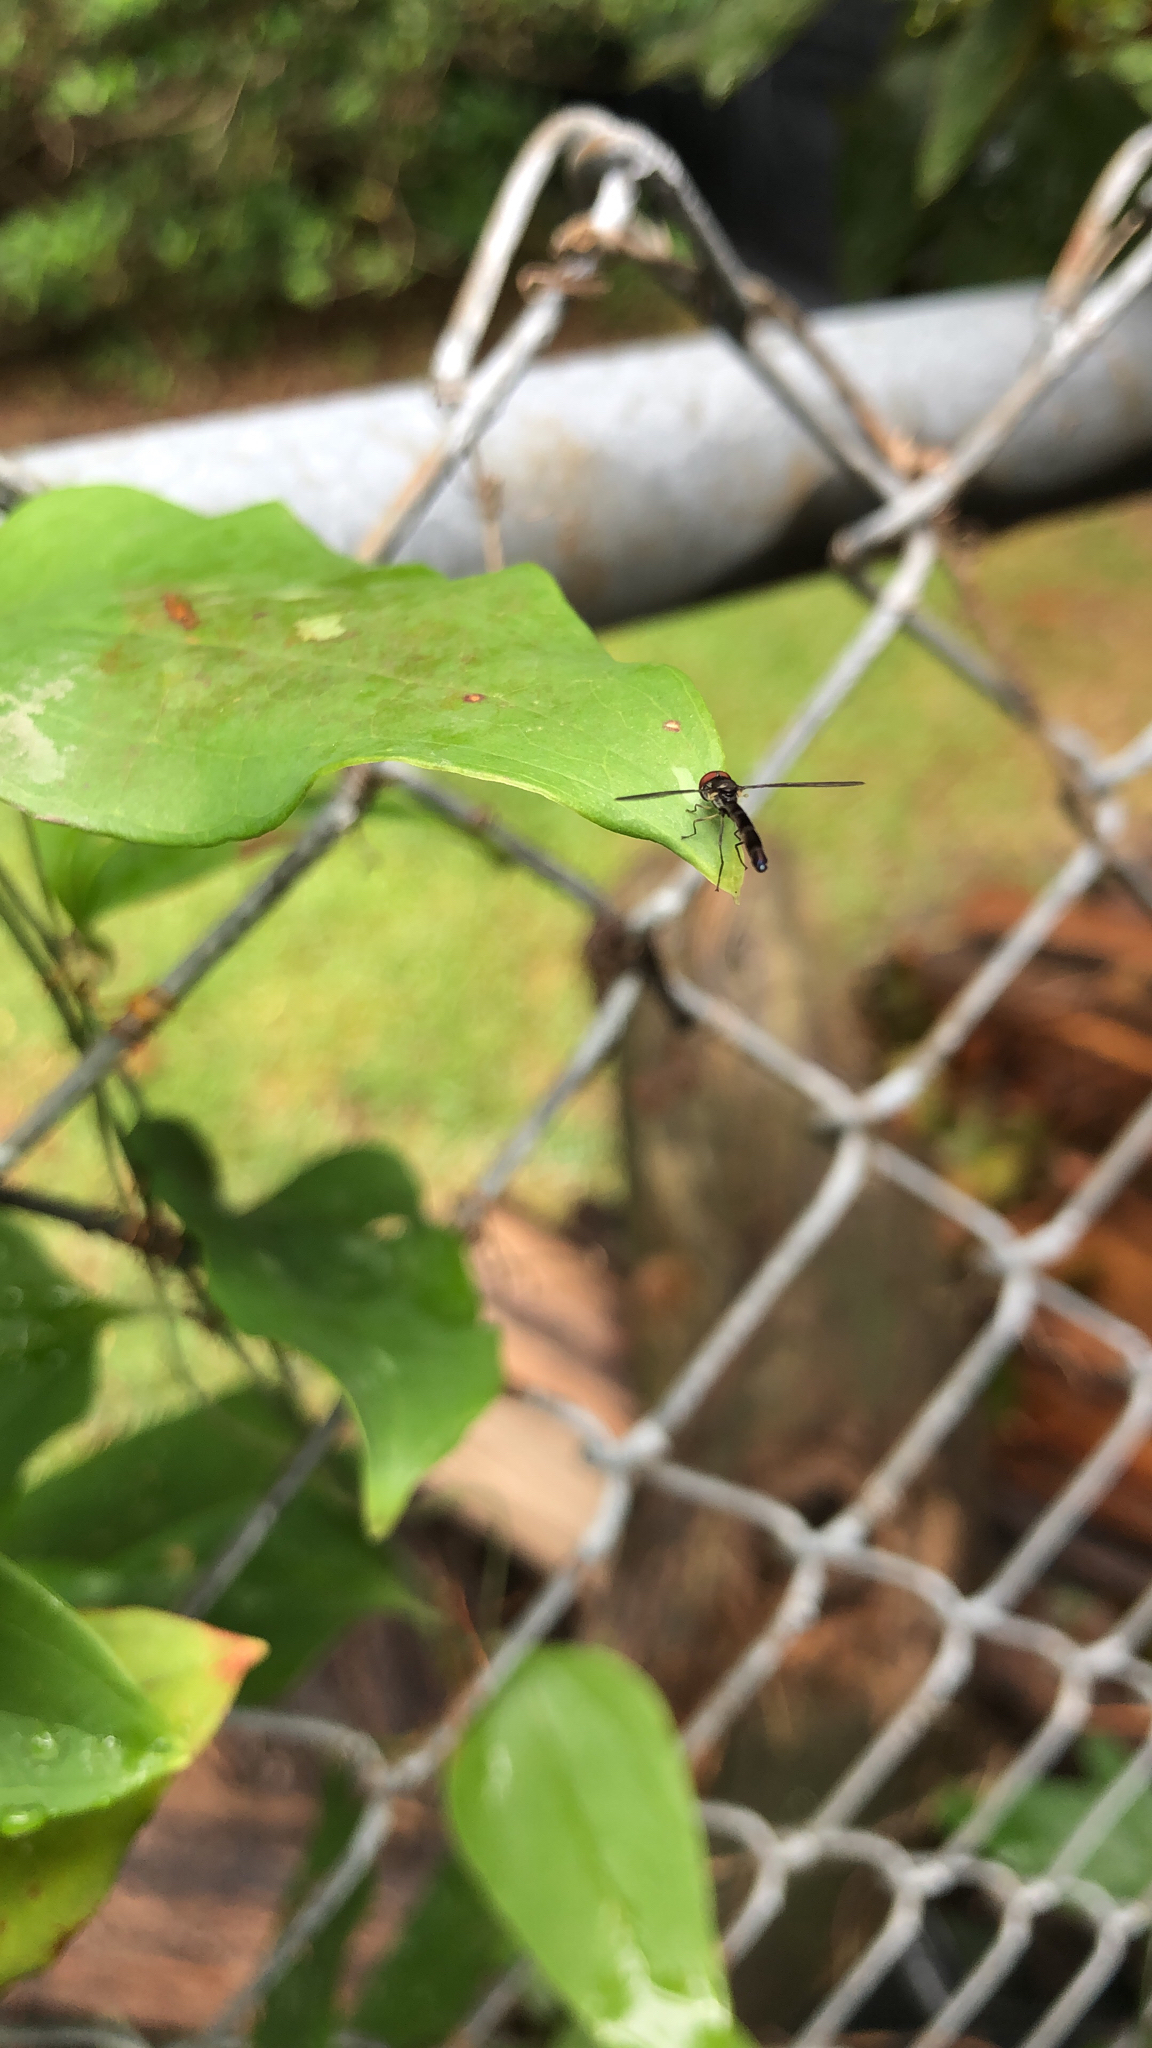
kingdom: Animalia
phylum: Arthropoda
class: Insecta
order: Diptera
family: Syrphidae
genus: Ocyptamus
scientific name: Ocyptamus fuscipennis
